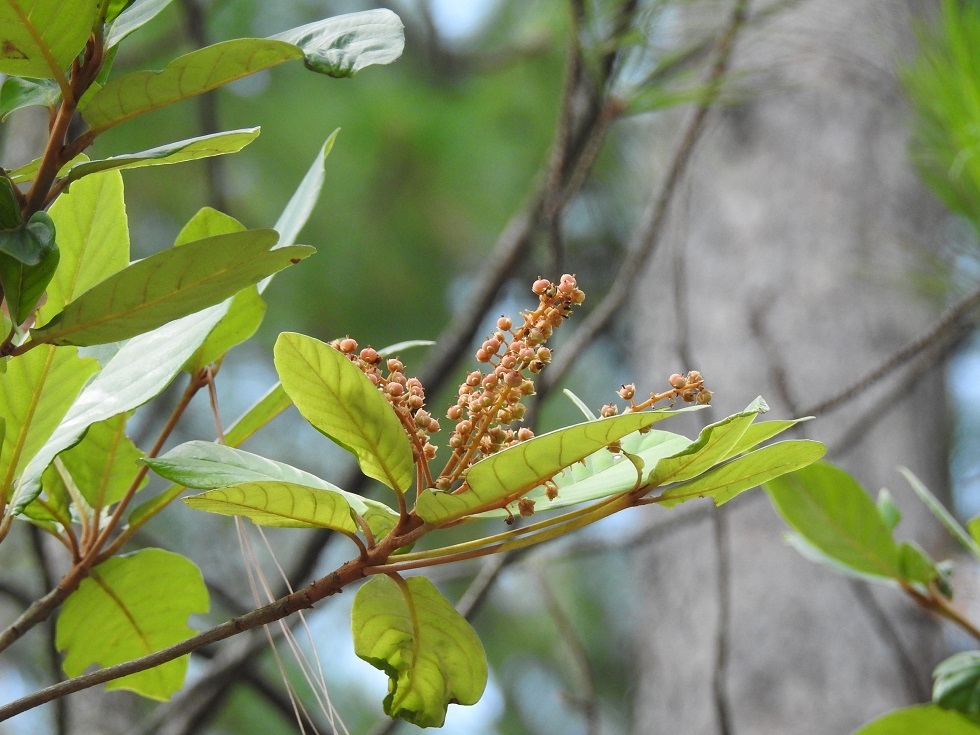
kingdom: Plantae
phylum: Tracheophyta
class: Magnoliopsida
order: Ericales
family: Clethraceae
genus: Clethra
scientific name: Clethra purpusii
